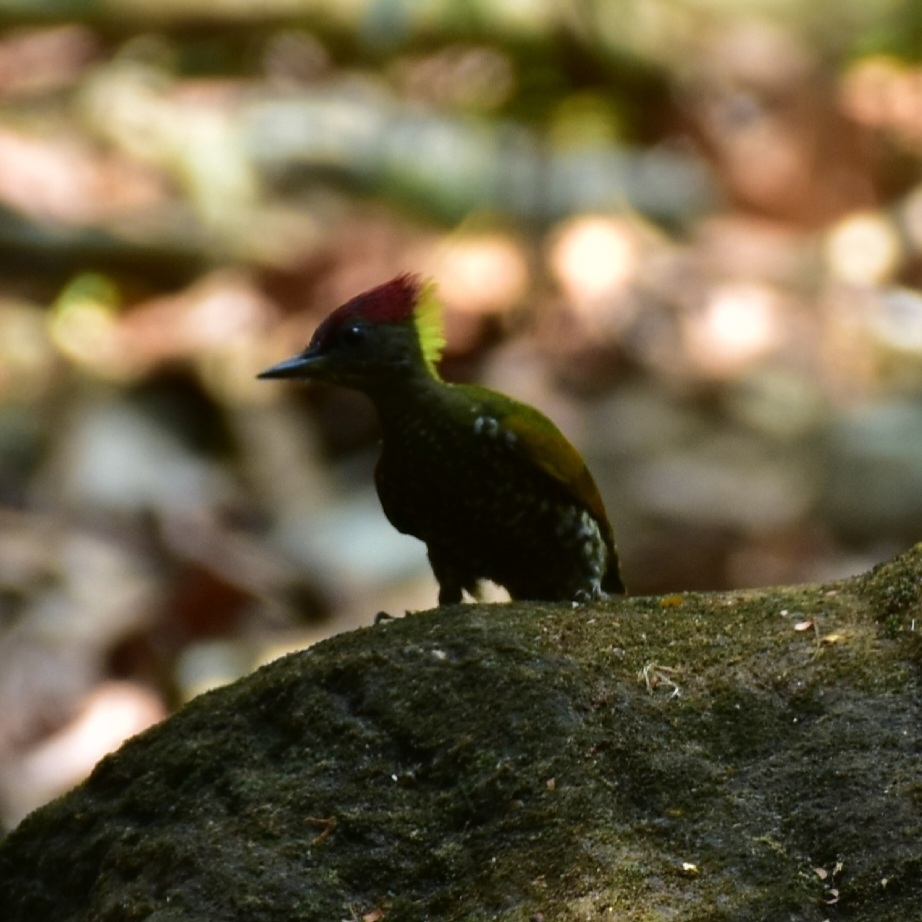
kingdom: Animalia
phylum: Chordata
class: Aves
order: Piciformes
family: Picidae
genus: Picus
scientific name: Picus chlorolophus
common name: Lesser yellownape
